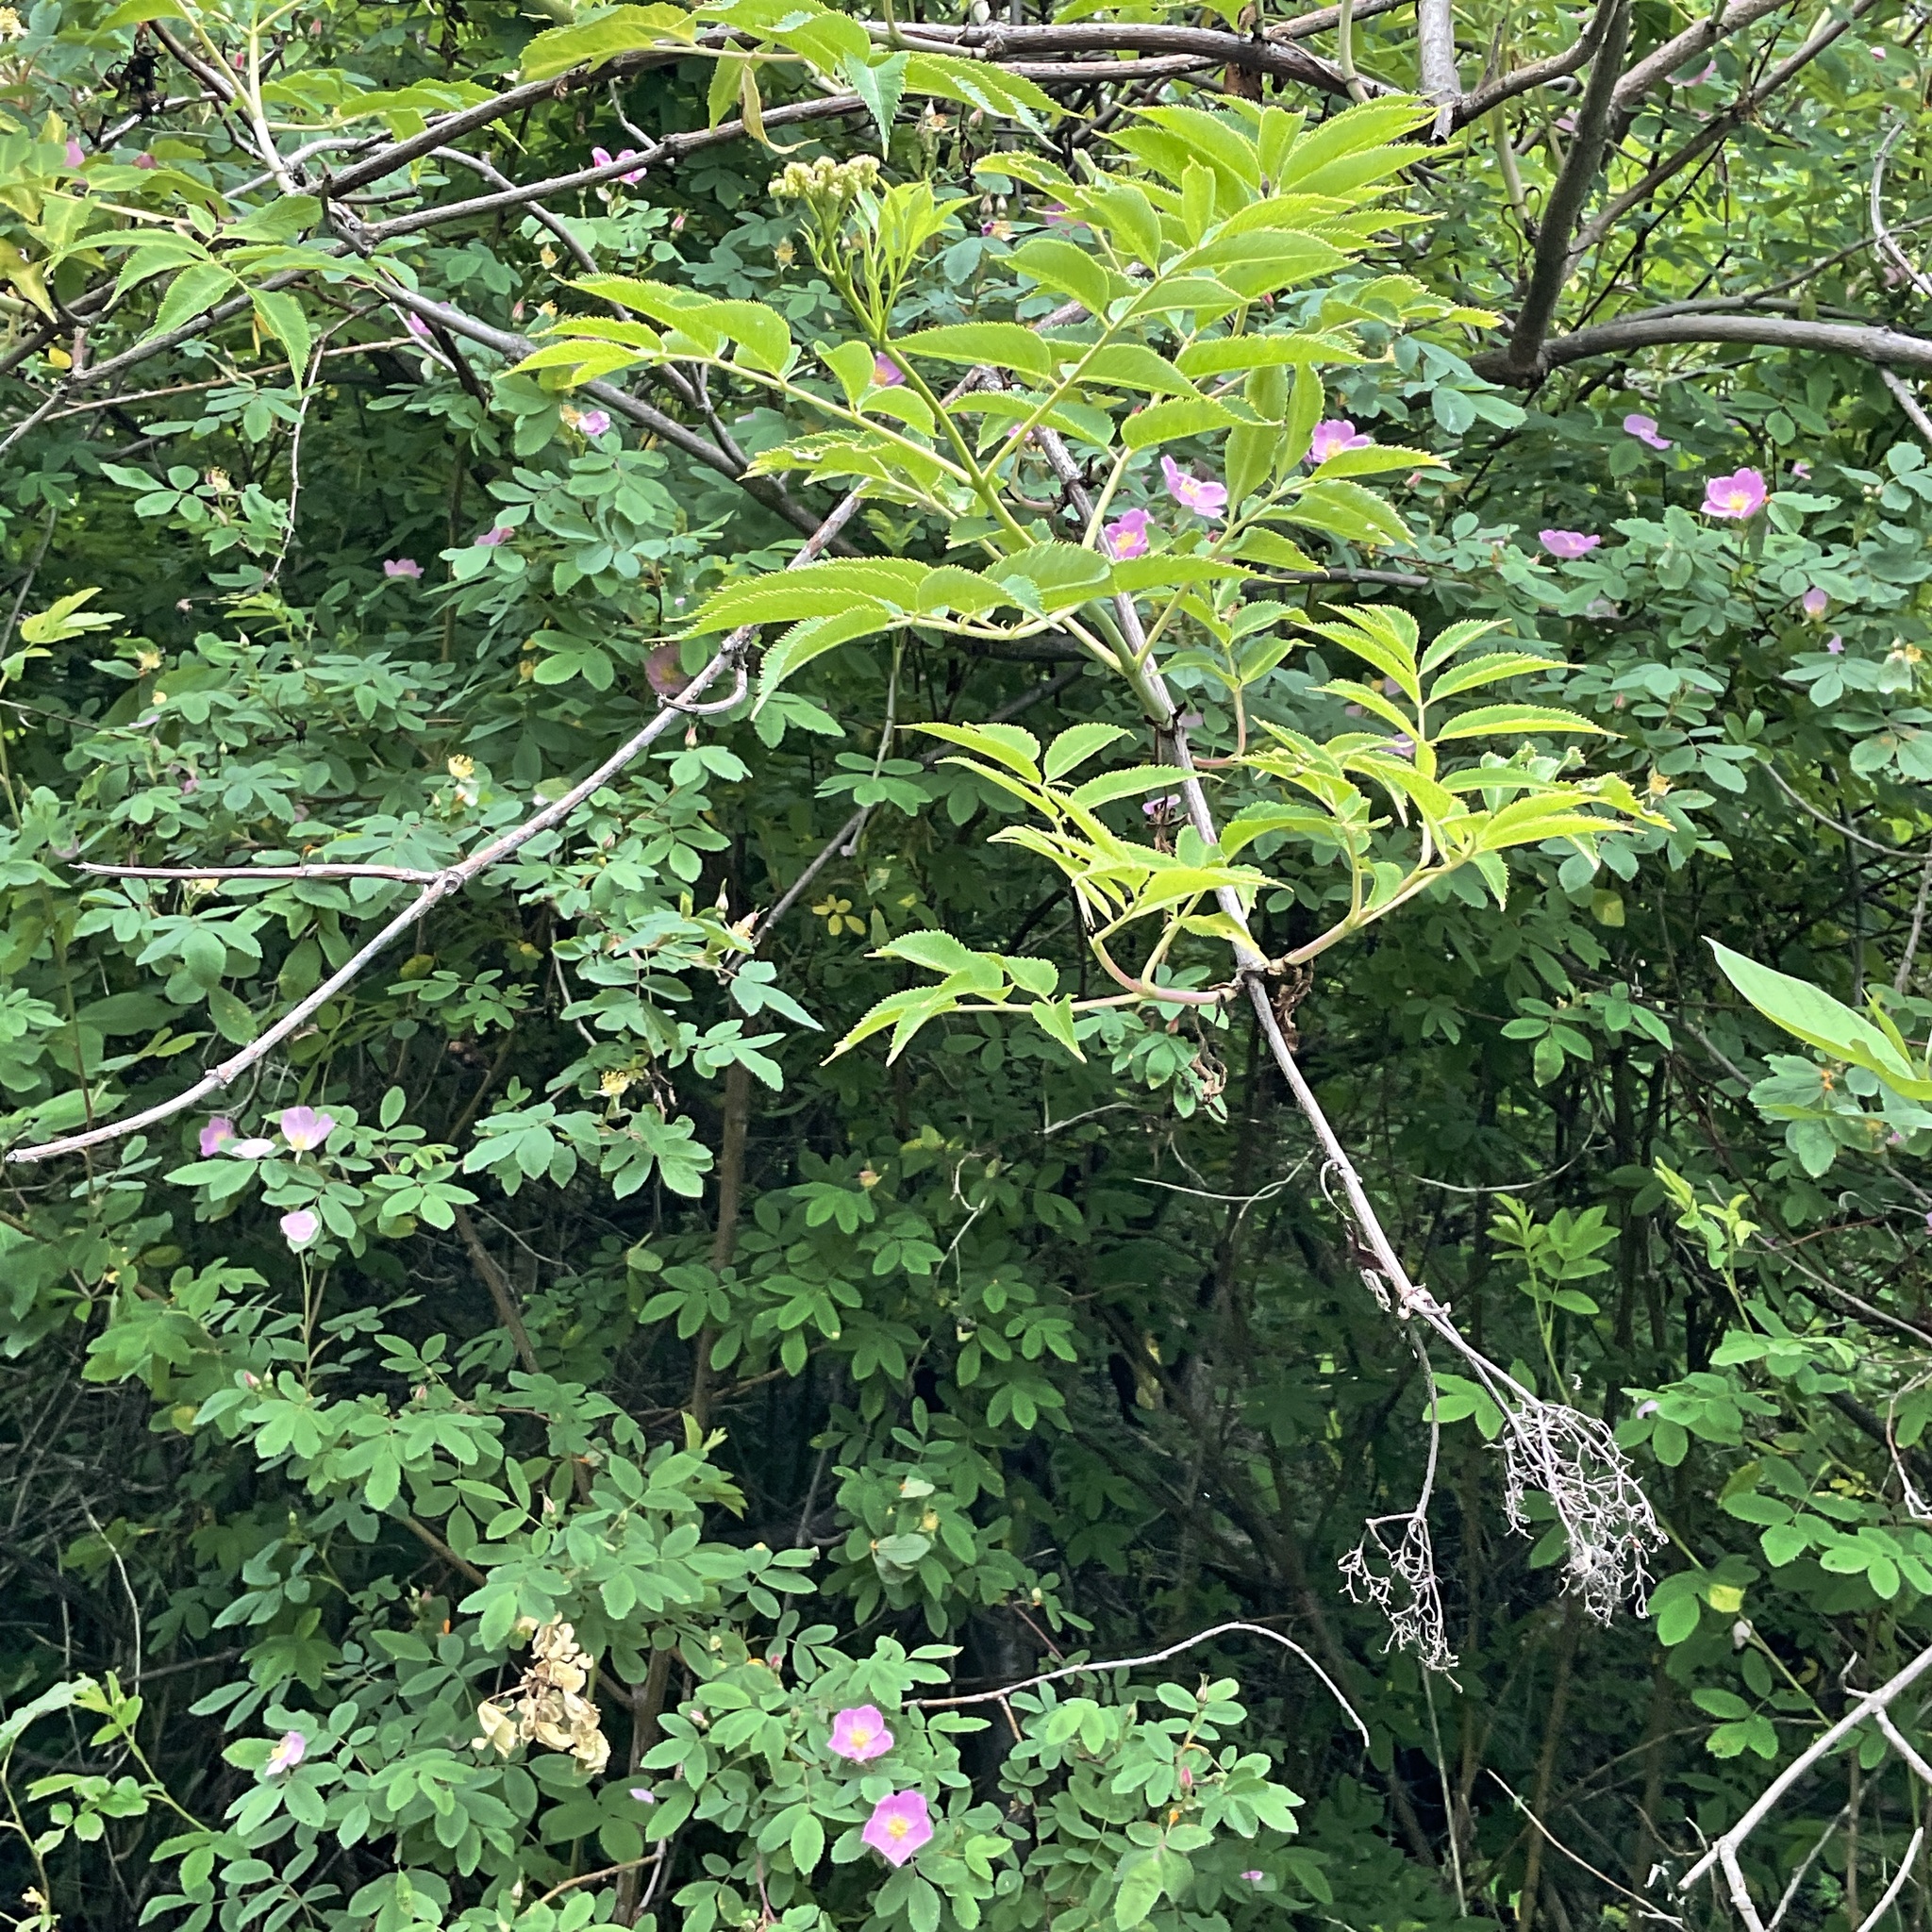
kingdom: Plantae
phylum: Tracheophyta
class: Magnoliopsida
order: Dipsacales
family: Viburnaceae
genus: Sambucus
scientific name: Sambucus cerulea
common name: Blue elder
